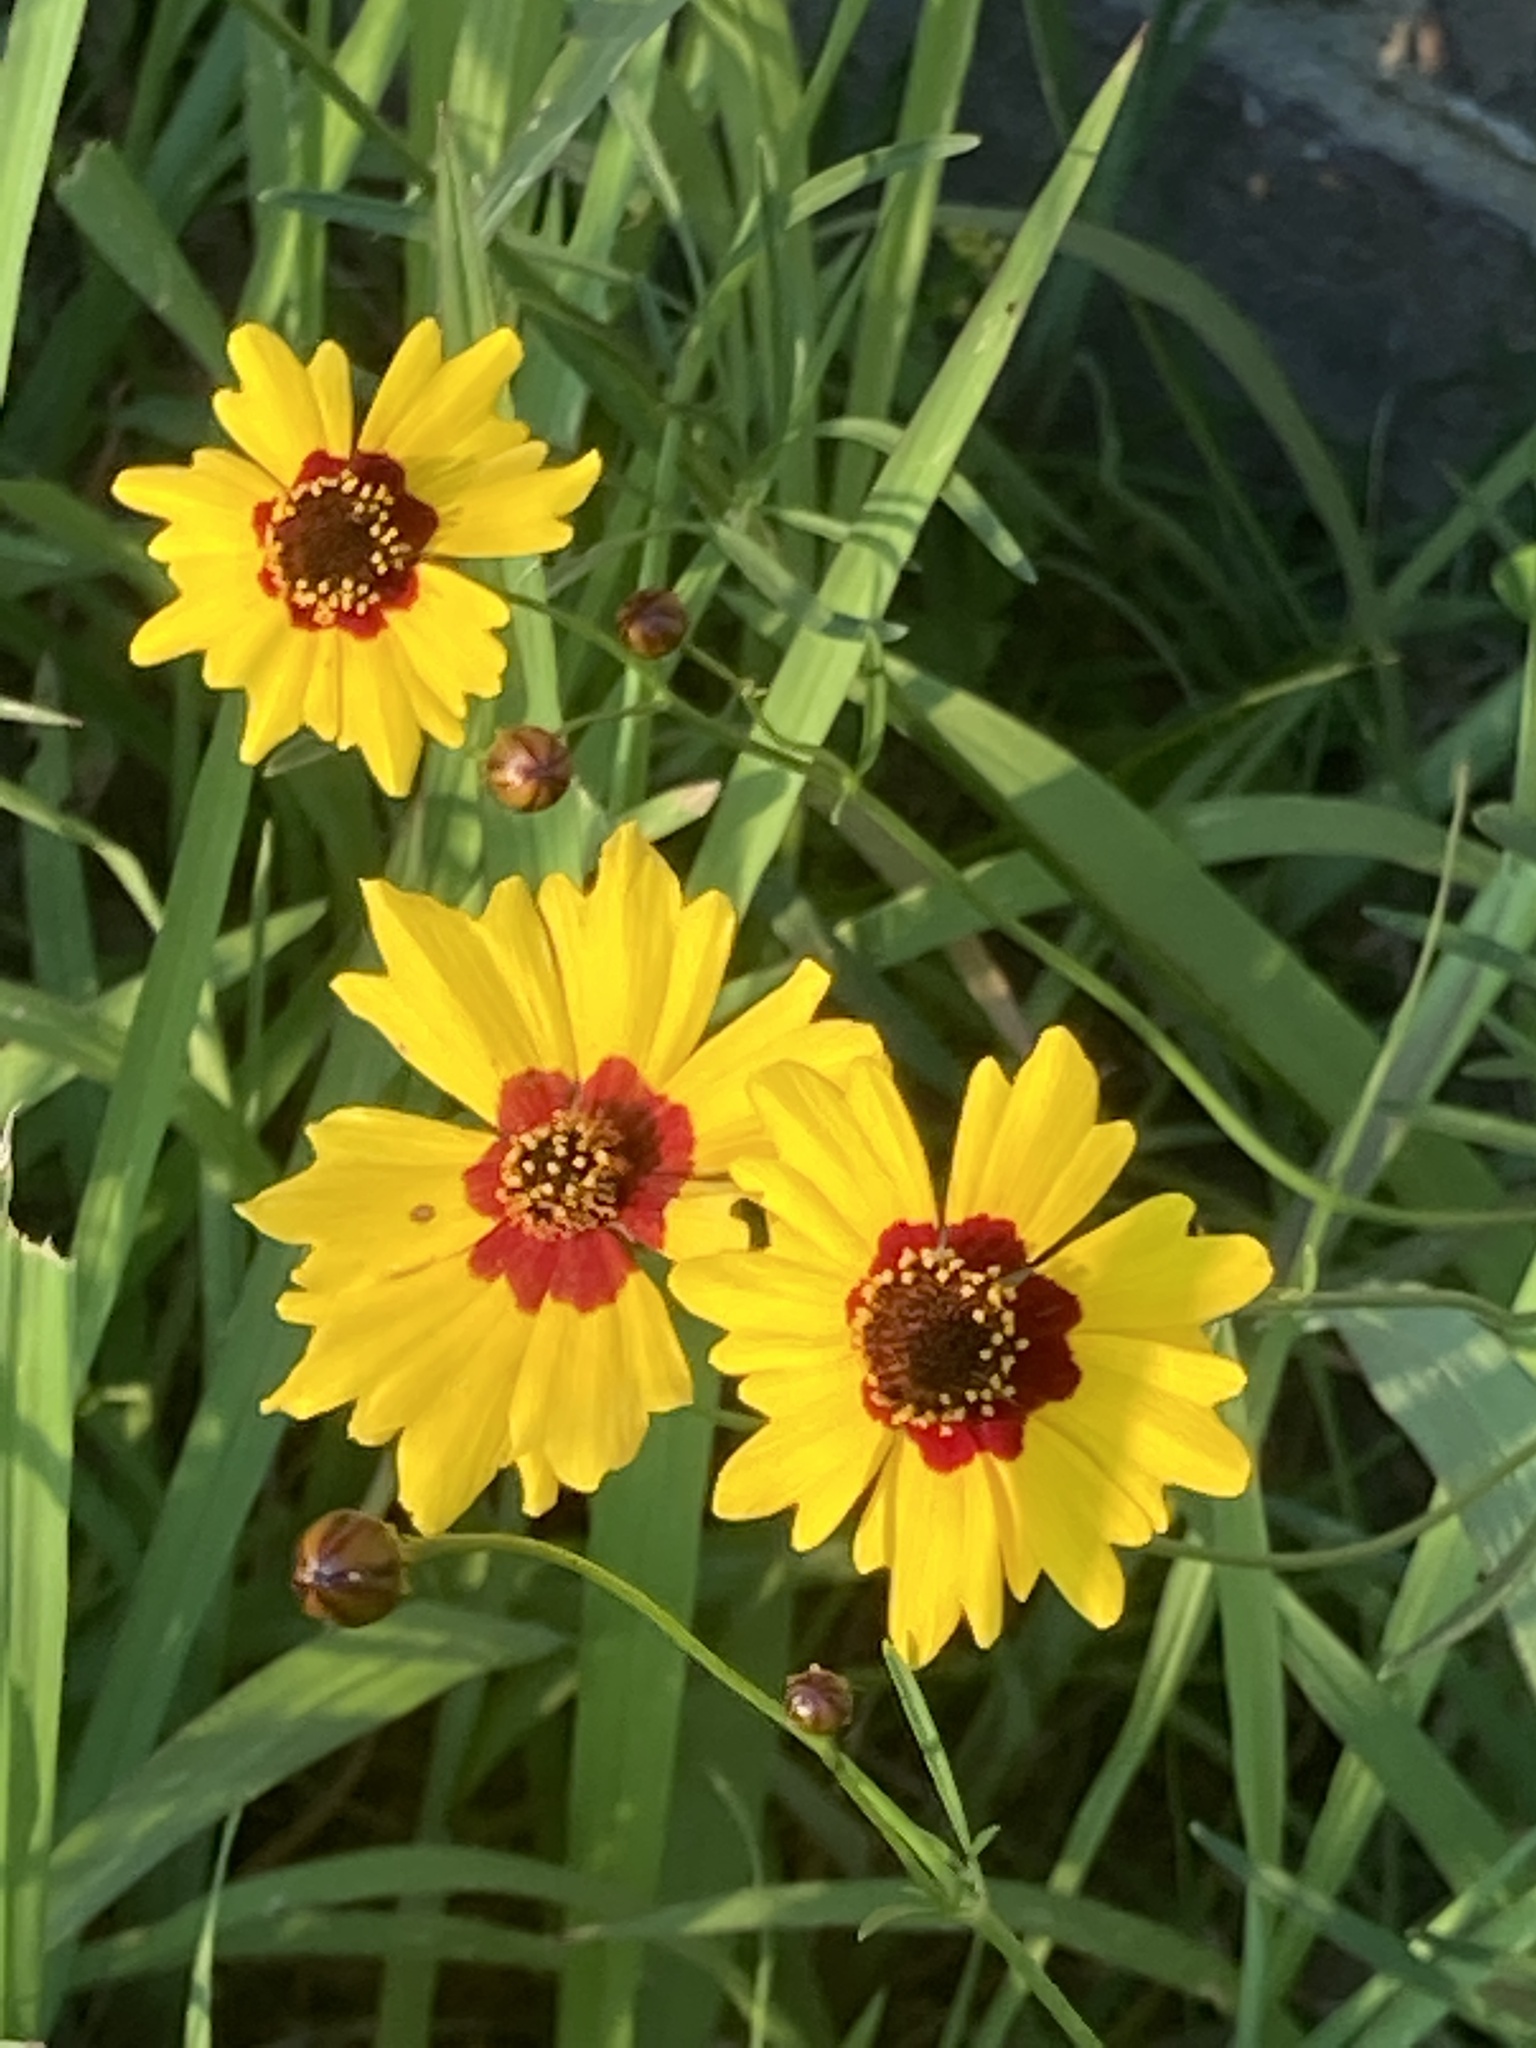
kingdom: Plantae
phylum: Tracheophyta
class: Magnoliopsida
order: Asterales
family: Asteraceae
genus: Coreopsis
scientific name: Coreopsis tinctoria
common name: Garden tickseed
